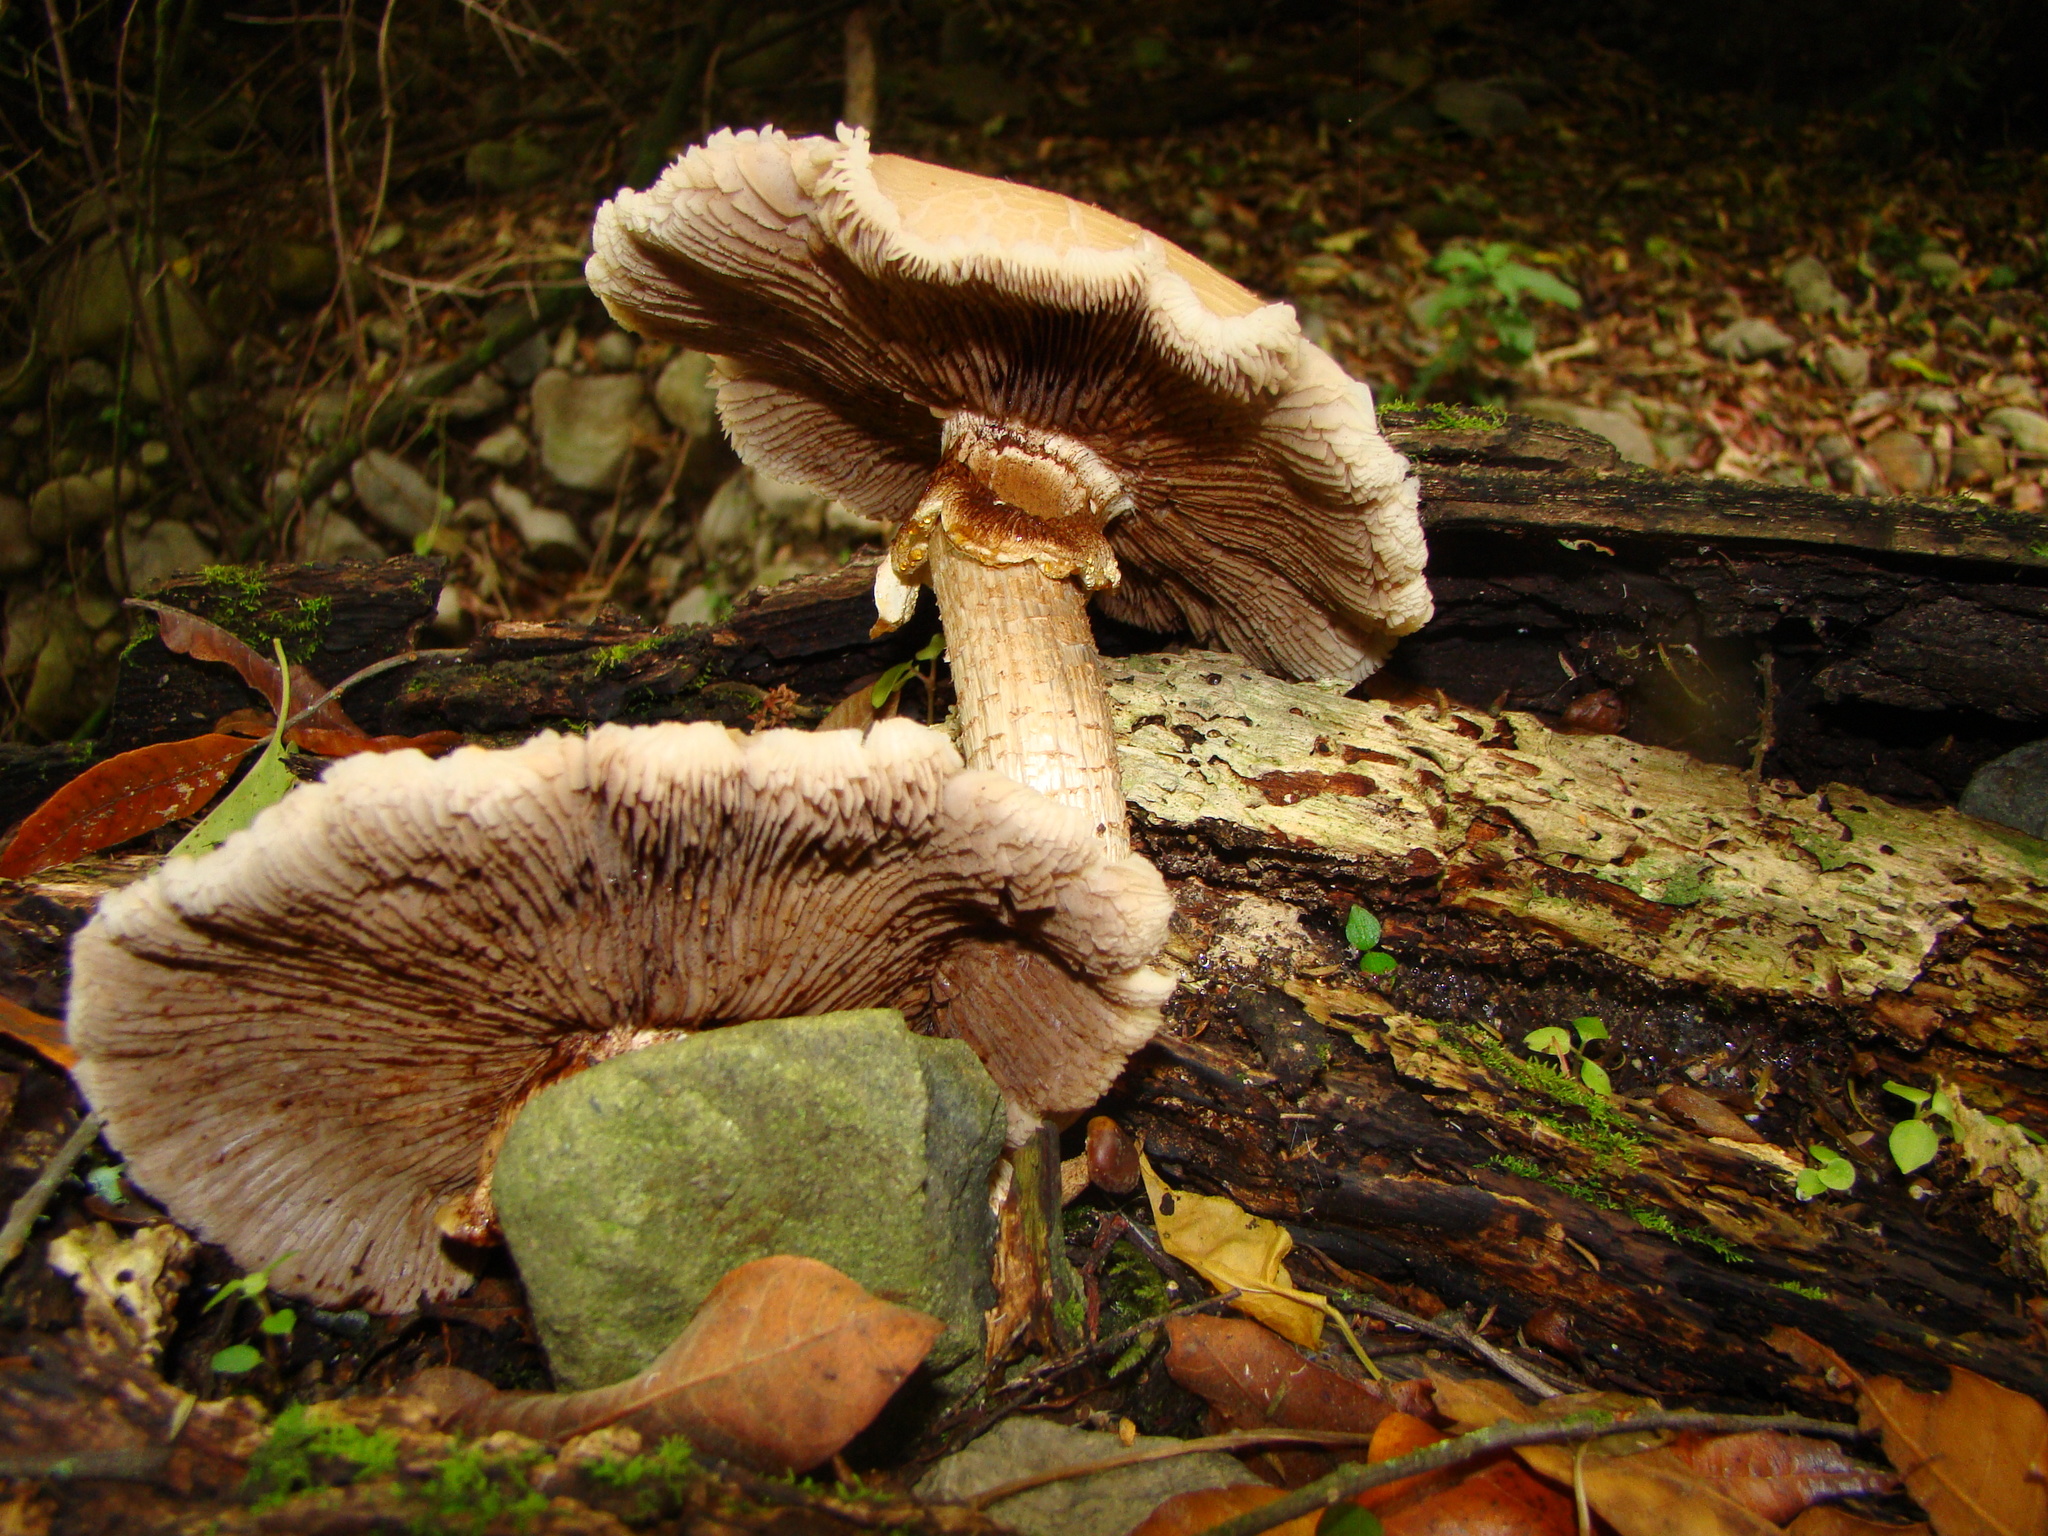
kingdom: Fungi
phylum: Basidiomycota
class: Agaricomycetes
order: Agaricales
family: Tubariaceae
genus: Cyclocybe
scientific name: Cyclocybe parasitica
